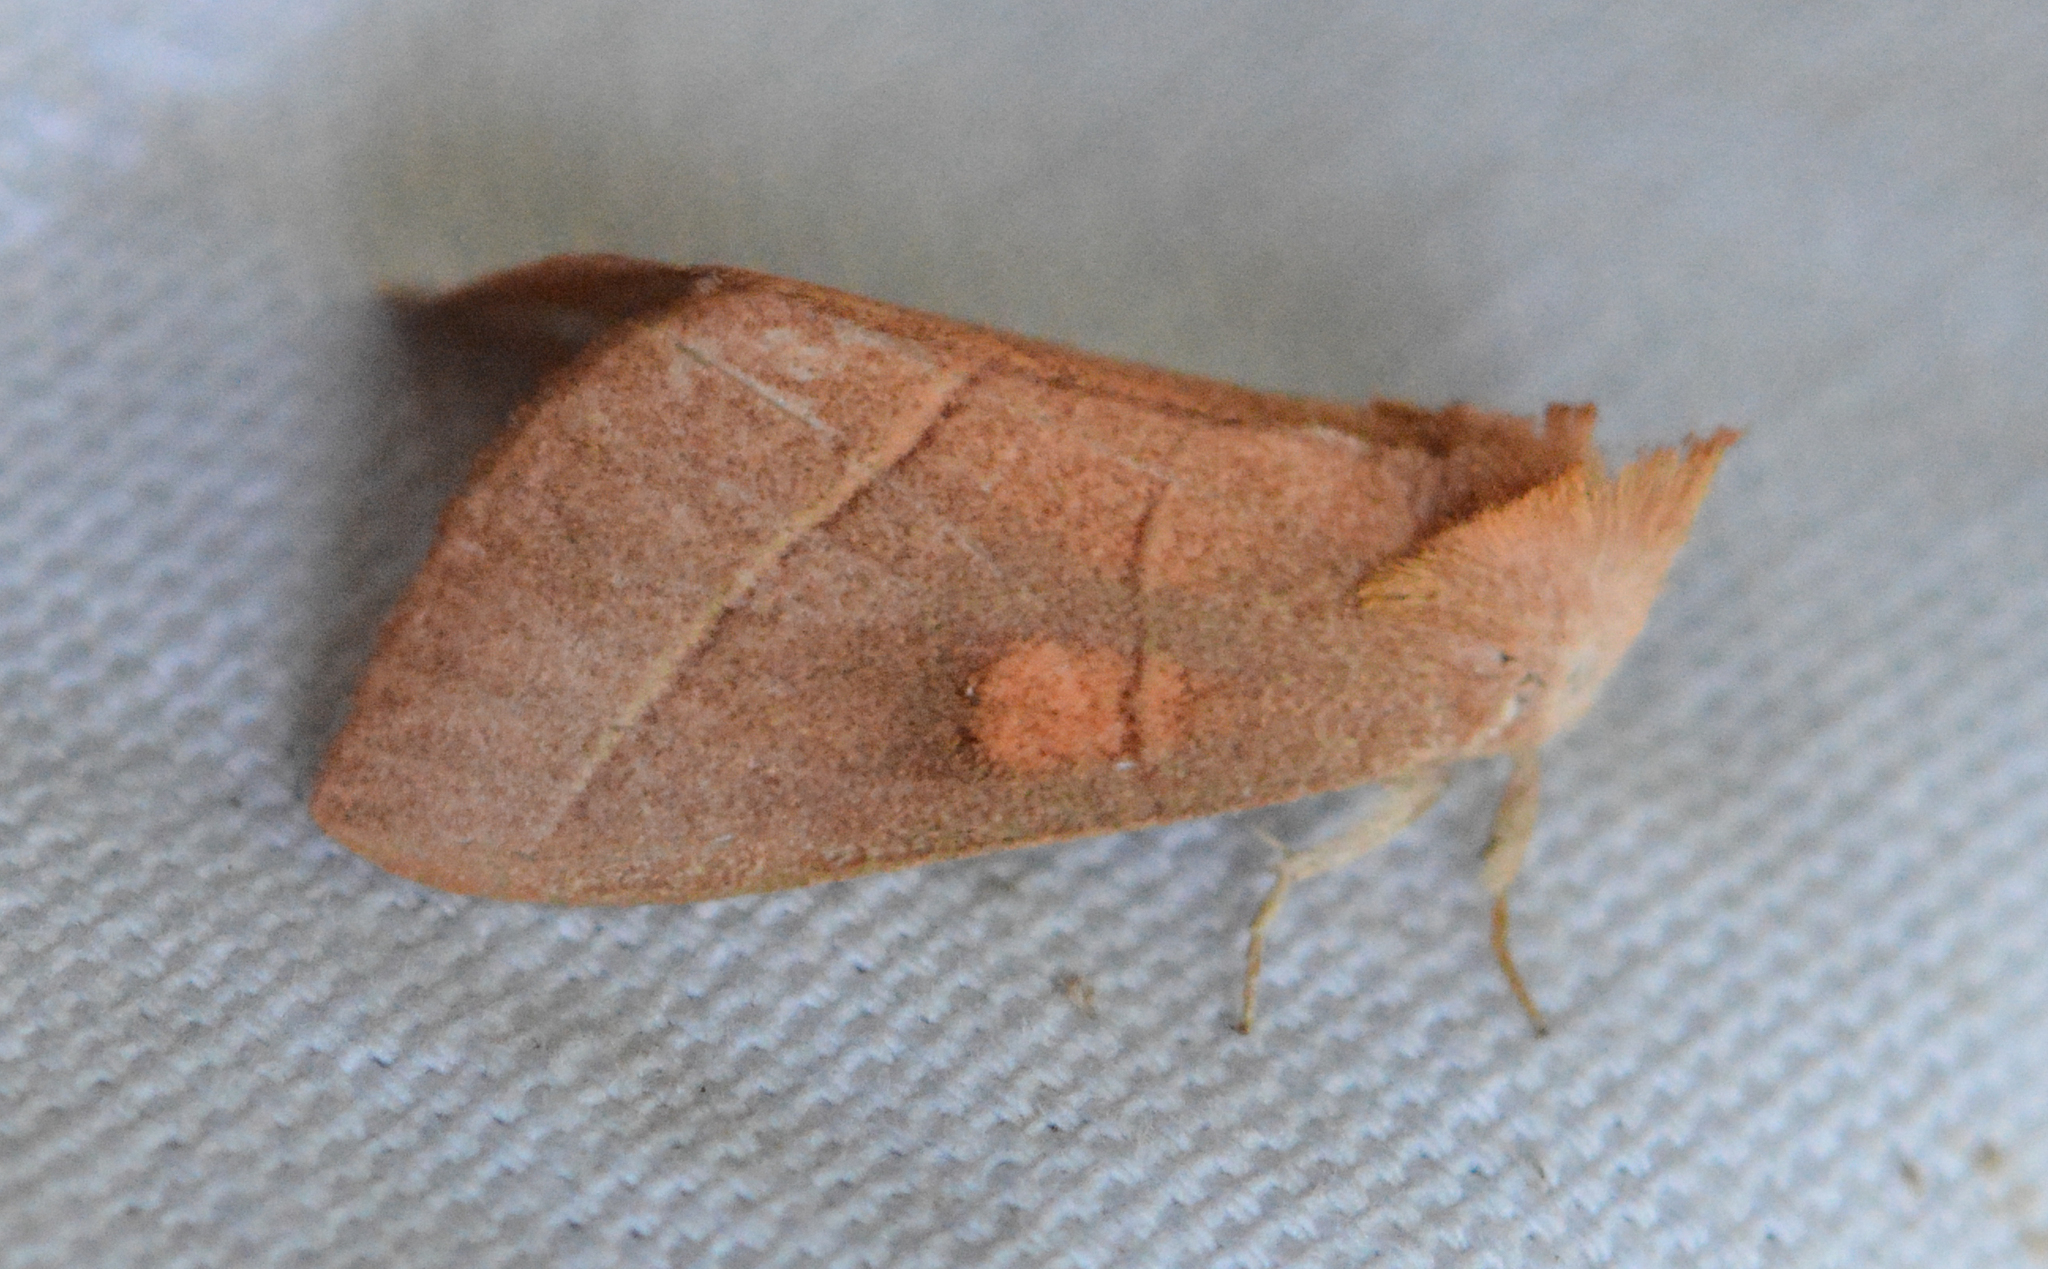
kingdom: Animalia
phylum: Arthropoda
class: Insecta
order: Lepidoptera
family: Notodontidae
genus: Nadata
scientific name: Nadata gibbosa
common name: White-dotted prominent
